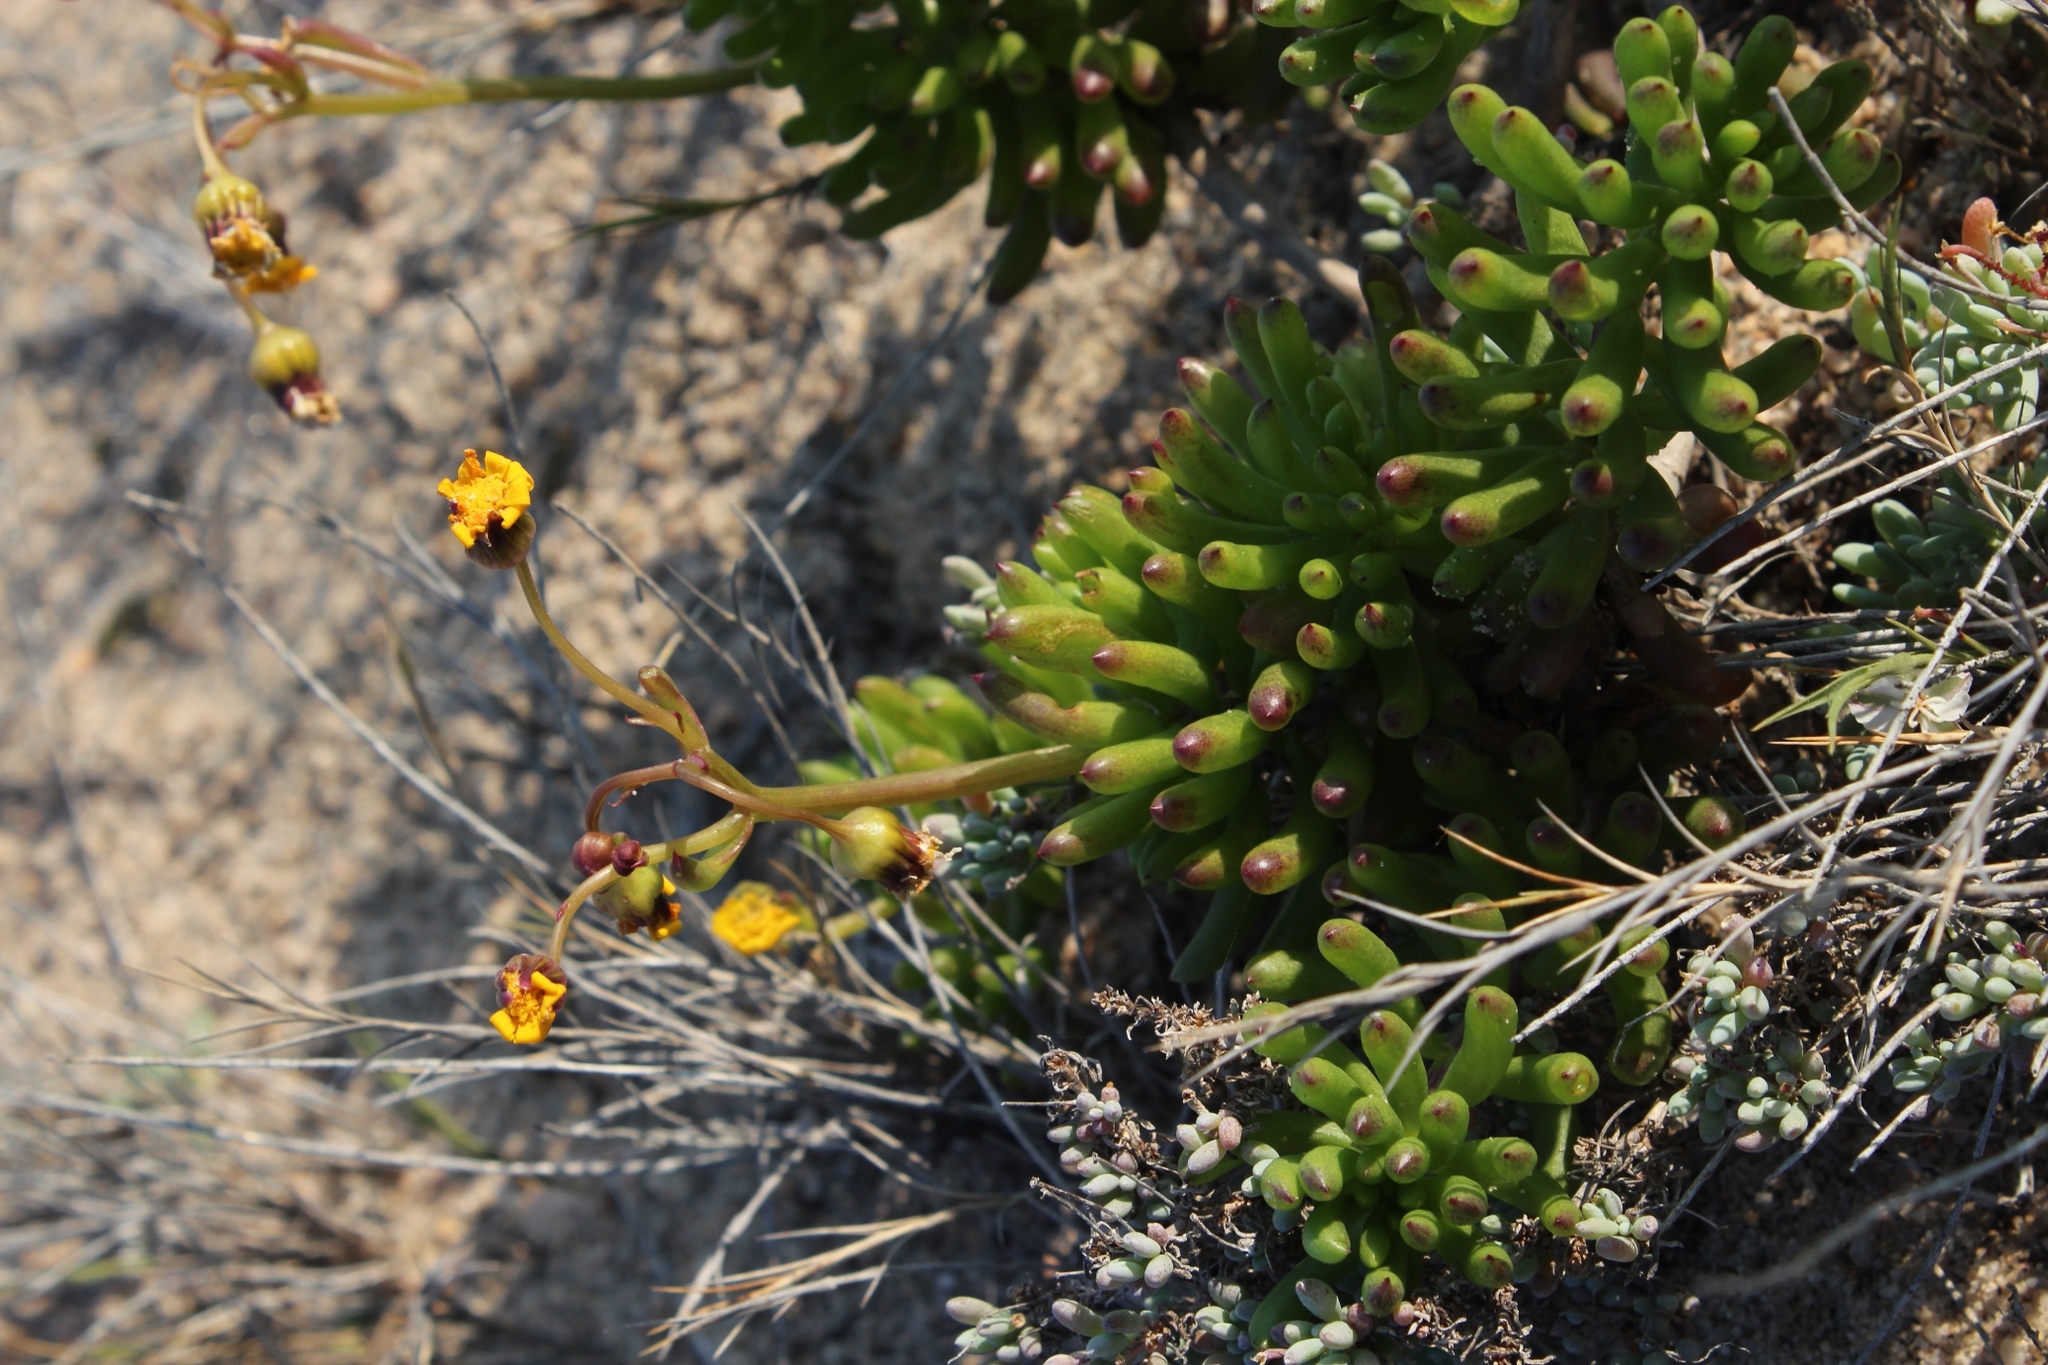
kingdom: Plantae
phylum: Tracheophyta
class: Magnoliopsida
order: Asterales
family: Asteraceae
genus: Crassothonna
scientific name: Crassothonna floribunda
